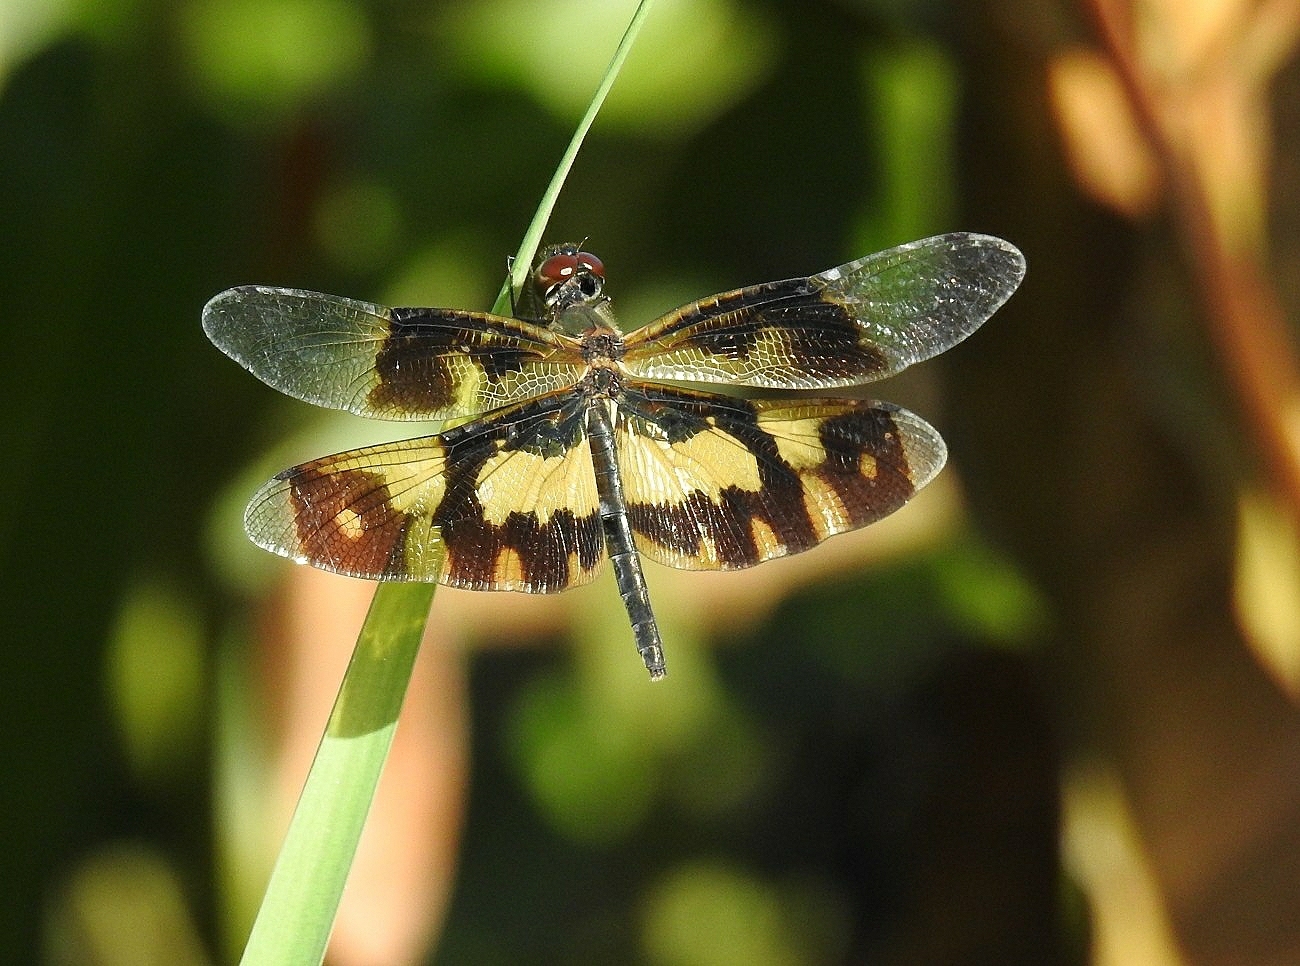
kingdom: Animalia
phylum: Arthropoda
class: Insecta
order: Odonata
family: Libellulidae
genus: Rhyothemis
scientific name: Rhyothemis variegata
